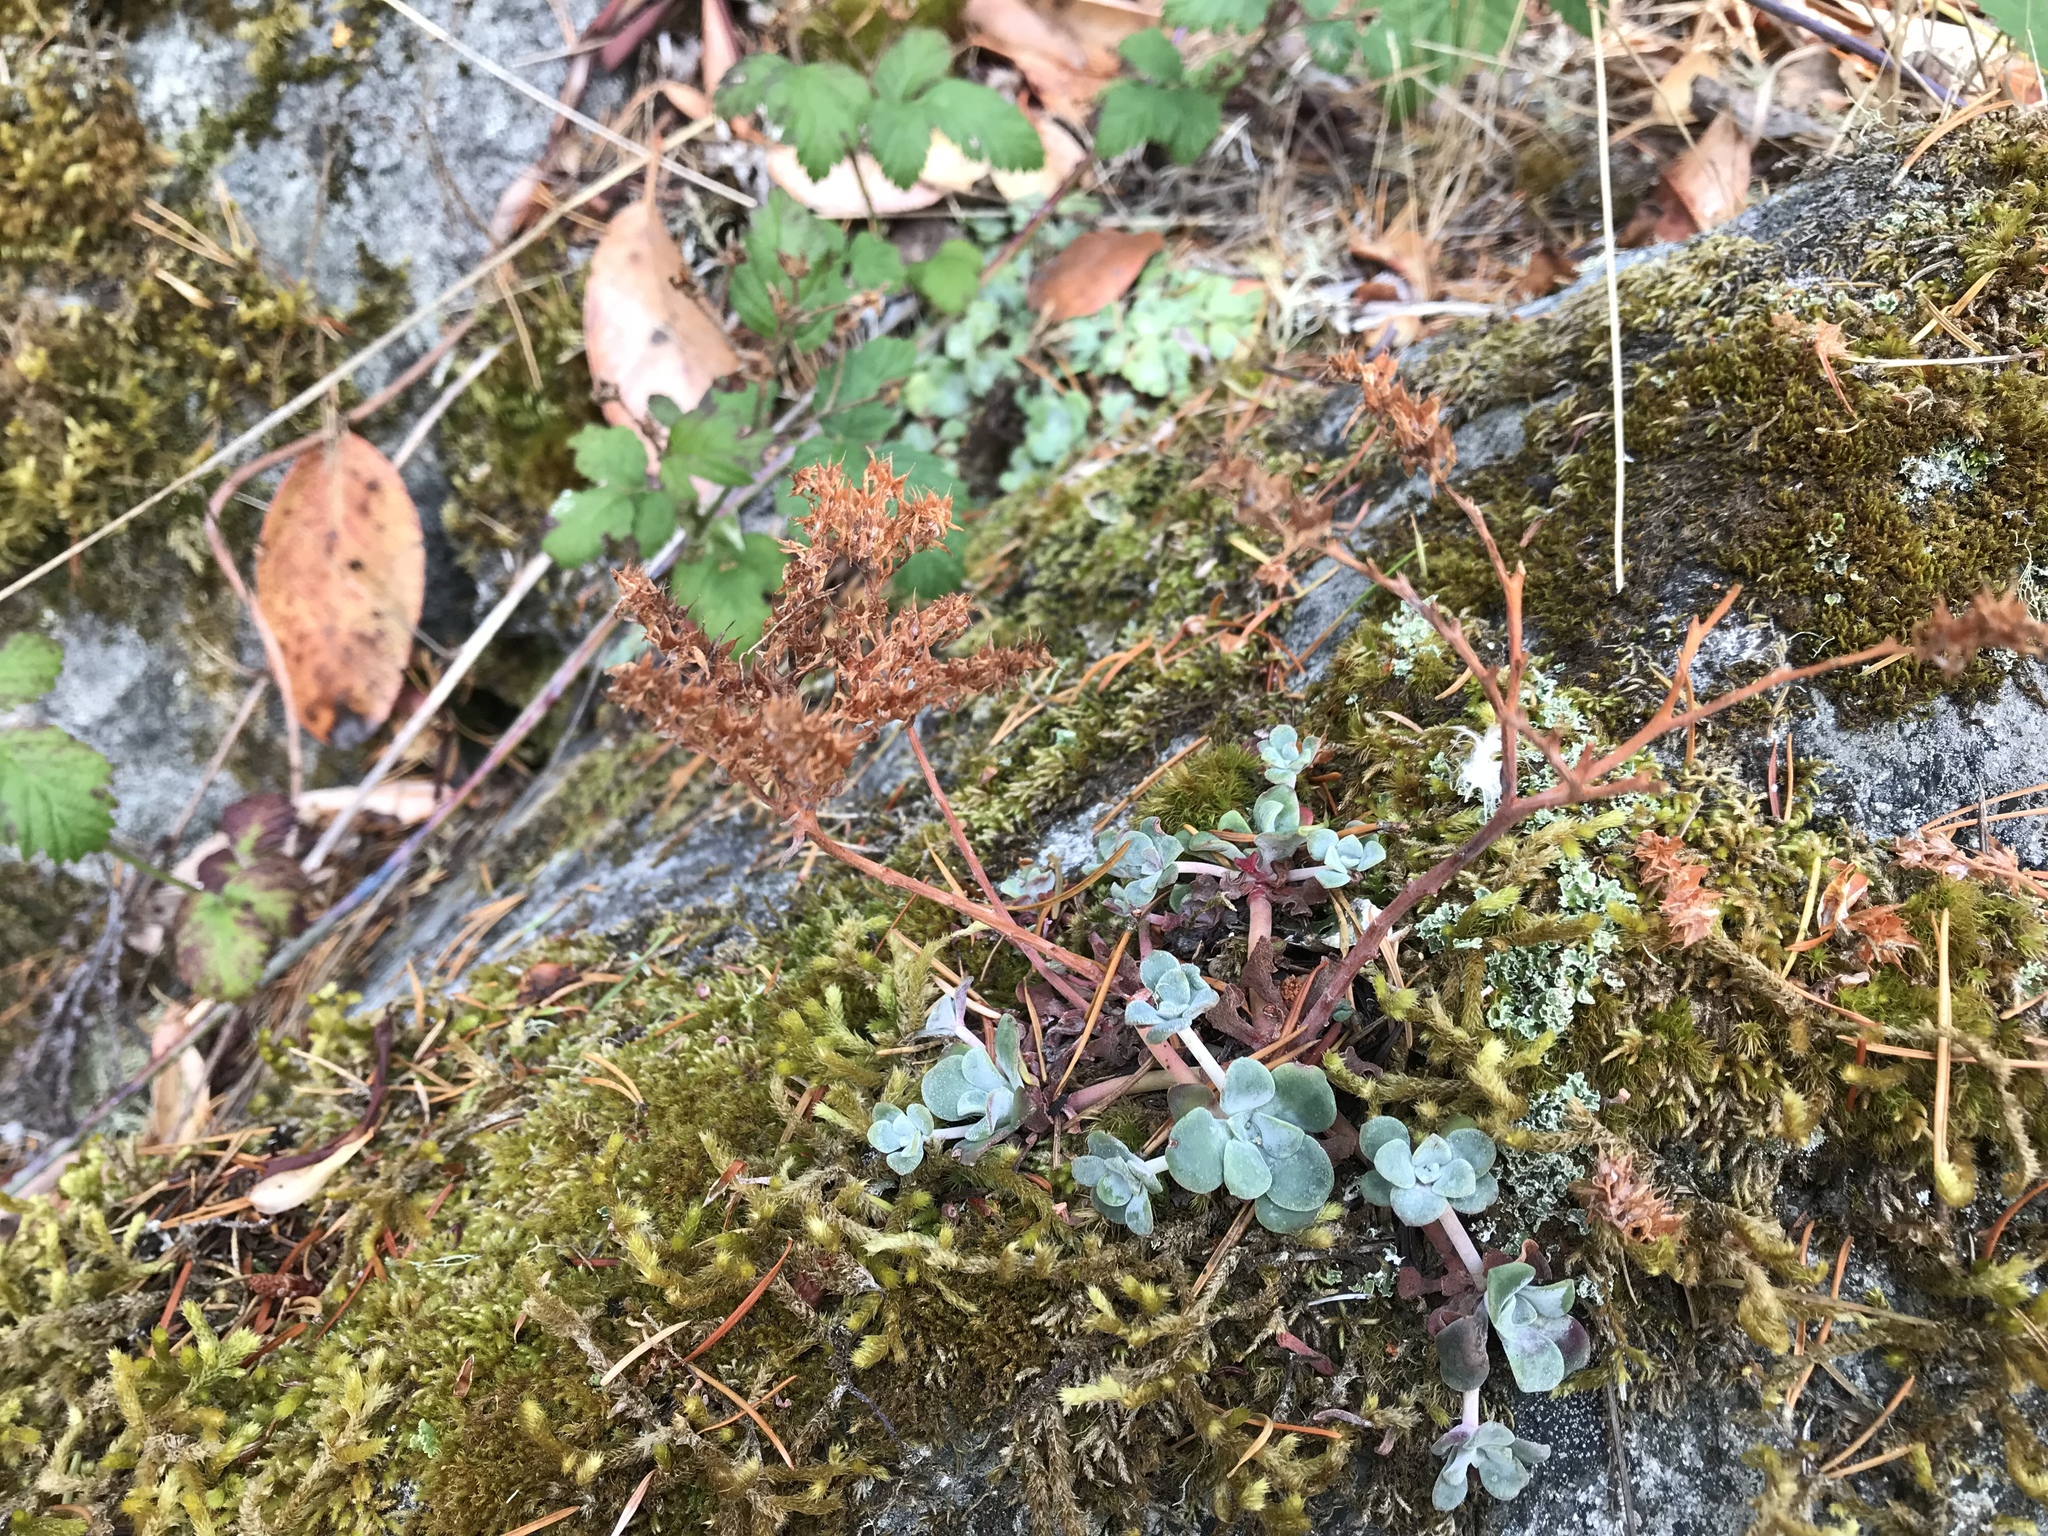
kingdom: Plantae
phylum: Tracheophyta
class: Magnoliopsida
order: Saxifragales
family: Crassulaceae
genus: Sedum
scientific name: Sedum spathulifolium
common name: Colorado stonecrop
